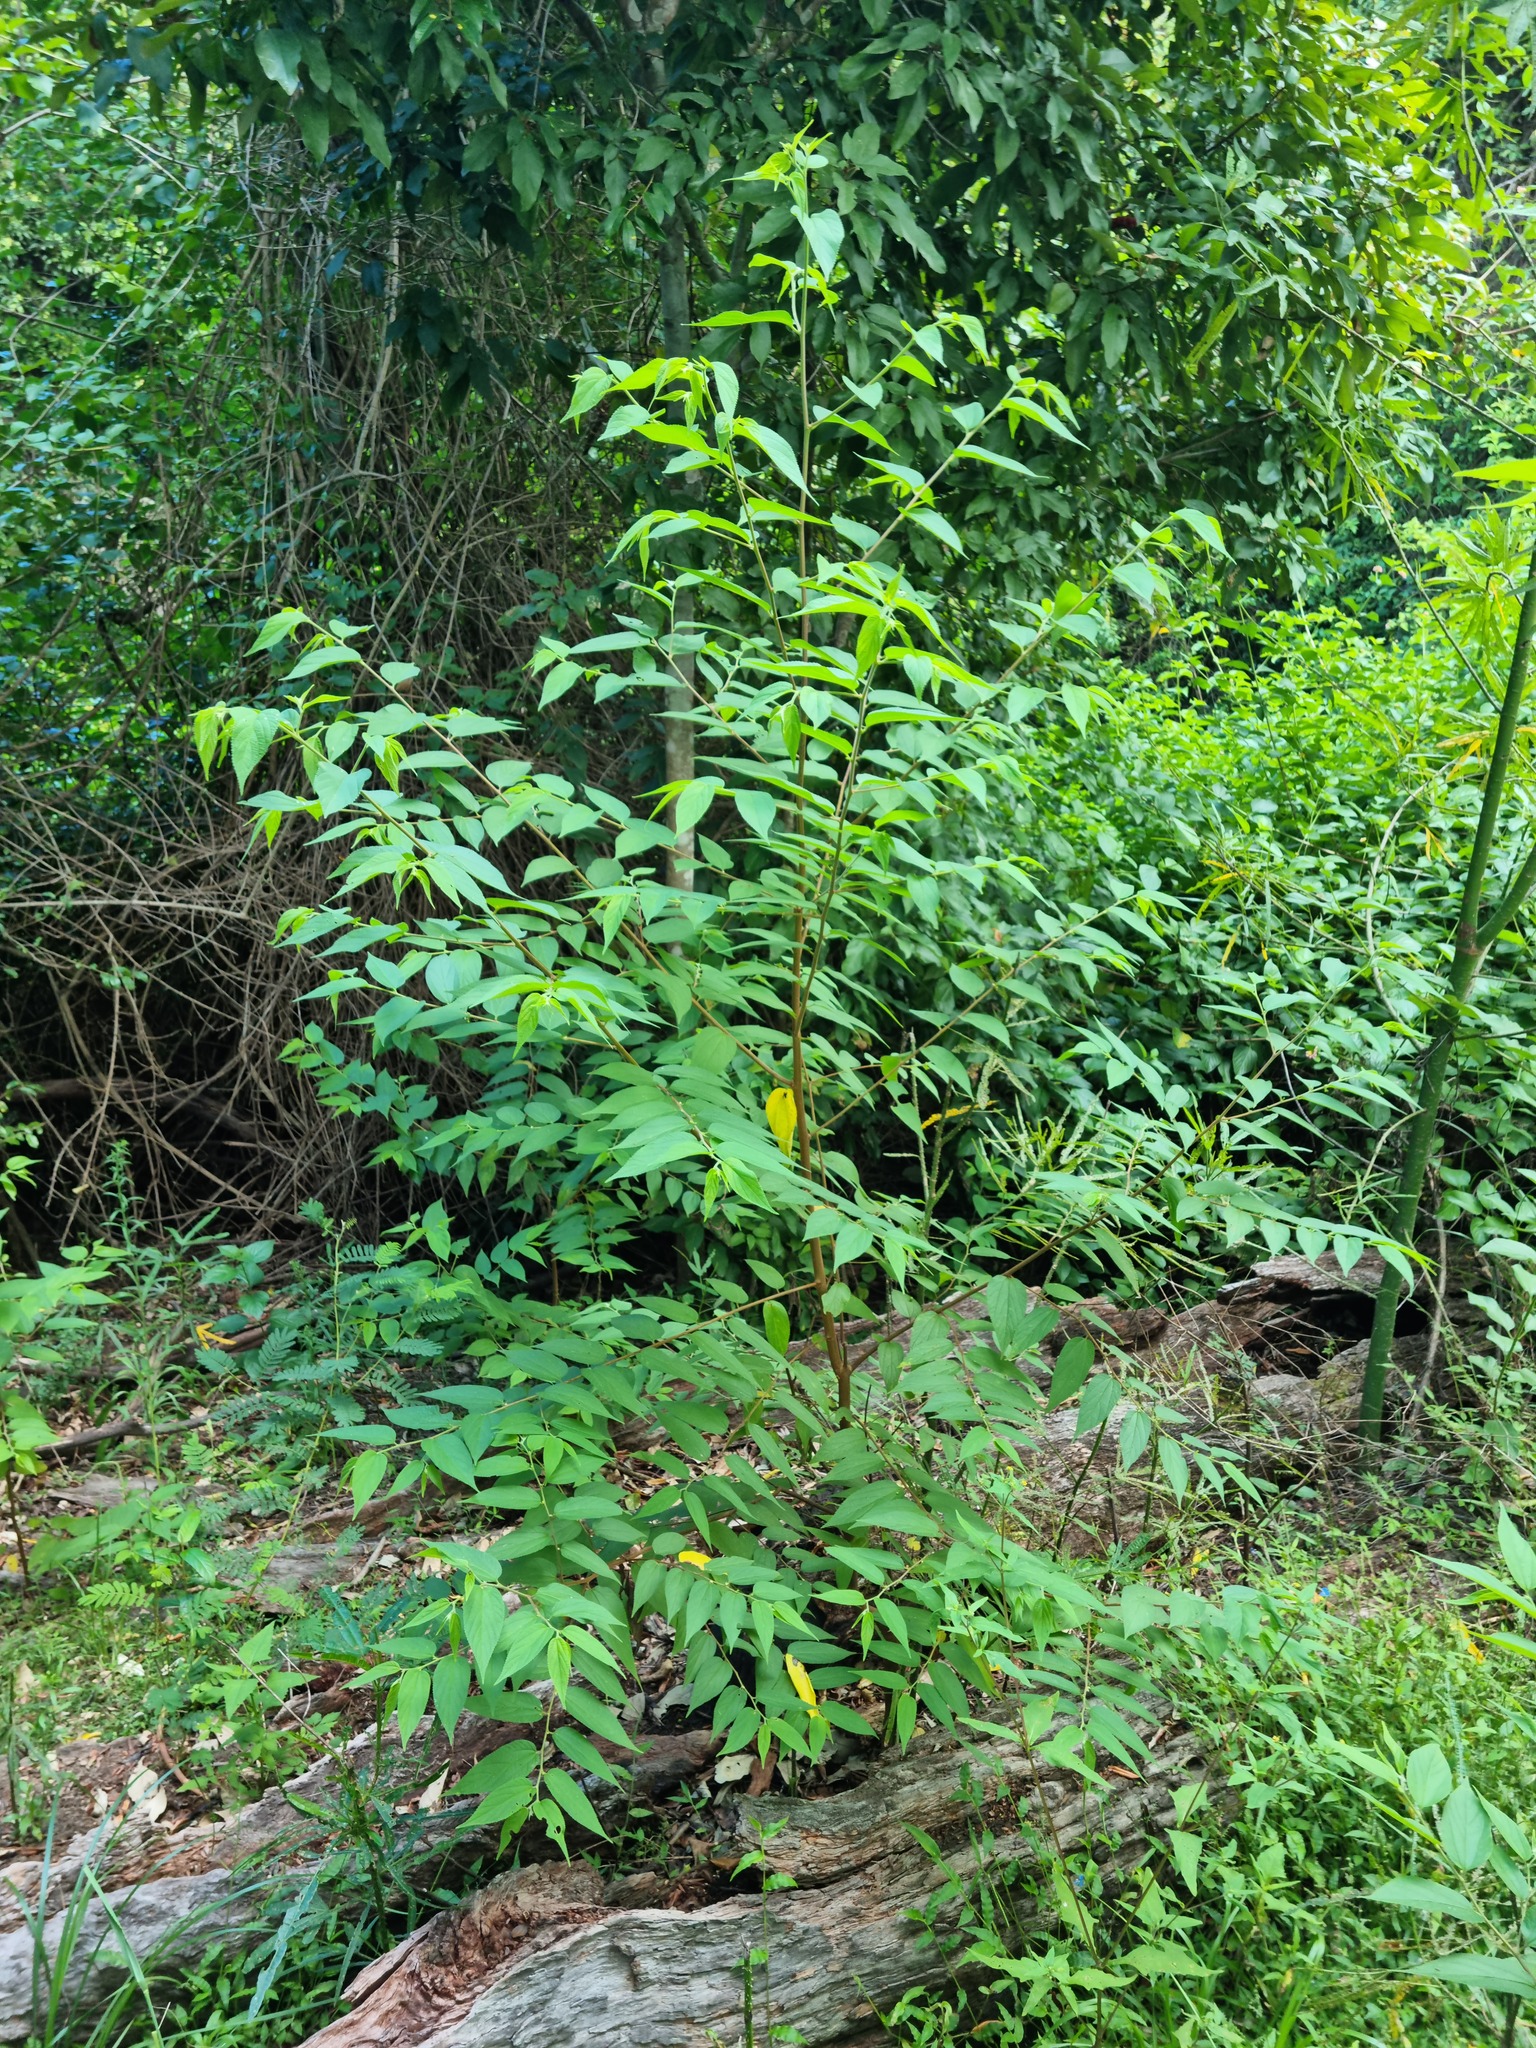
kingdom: Plantae
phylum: Tracheophyta
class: Magnoliopsida
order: Rosales
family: Cannabaceae
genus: Trema
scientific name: Trema tomentosum
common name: Peach-leaf-poisonbush
